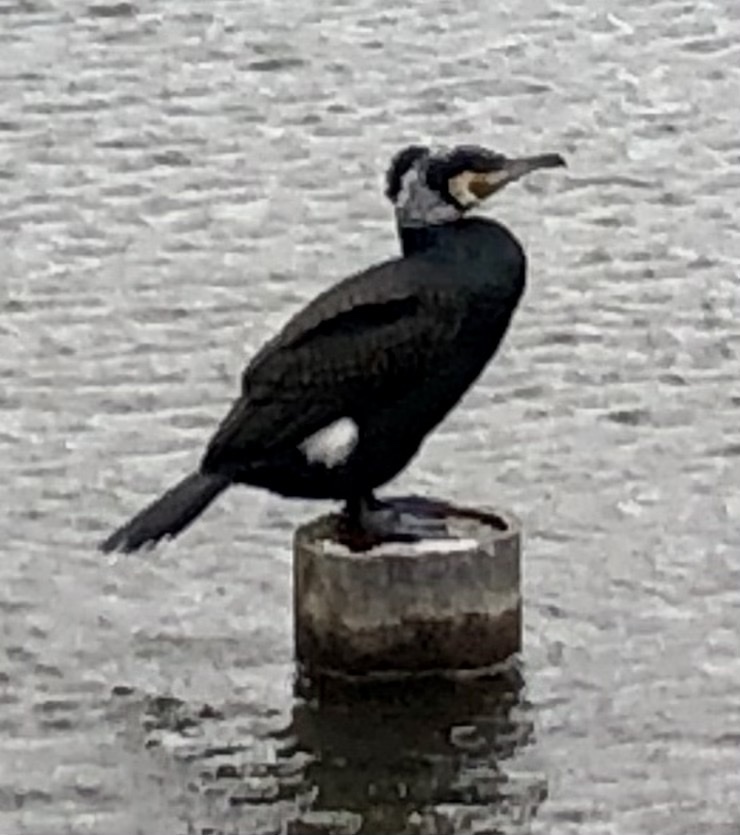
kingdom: Animalia
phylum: Chordata
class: Aves
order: Suliformes
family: Phalacrocoracidae
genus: Phalacrocorax
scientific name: Phalacrocorax carbo
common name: Great cormorant
